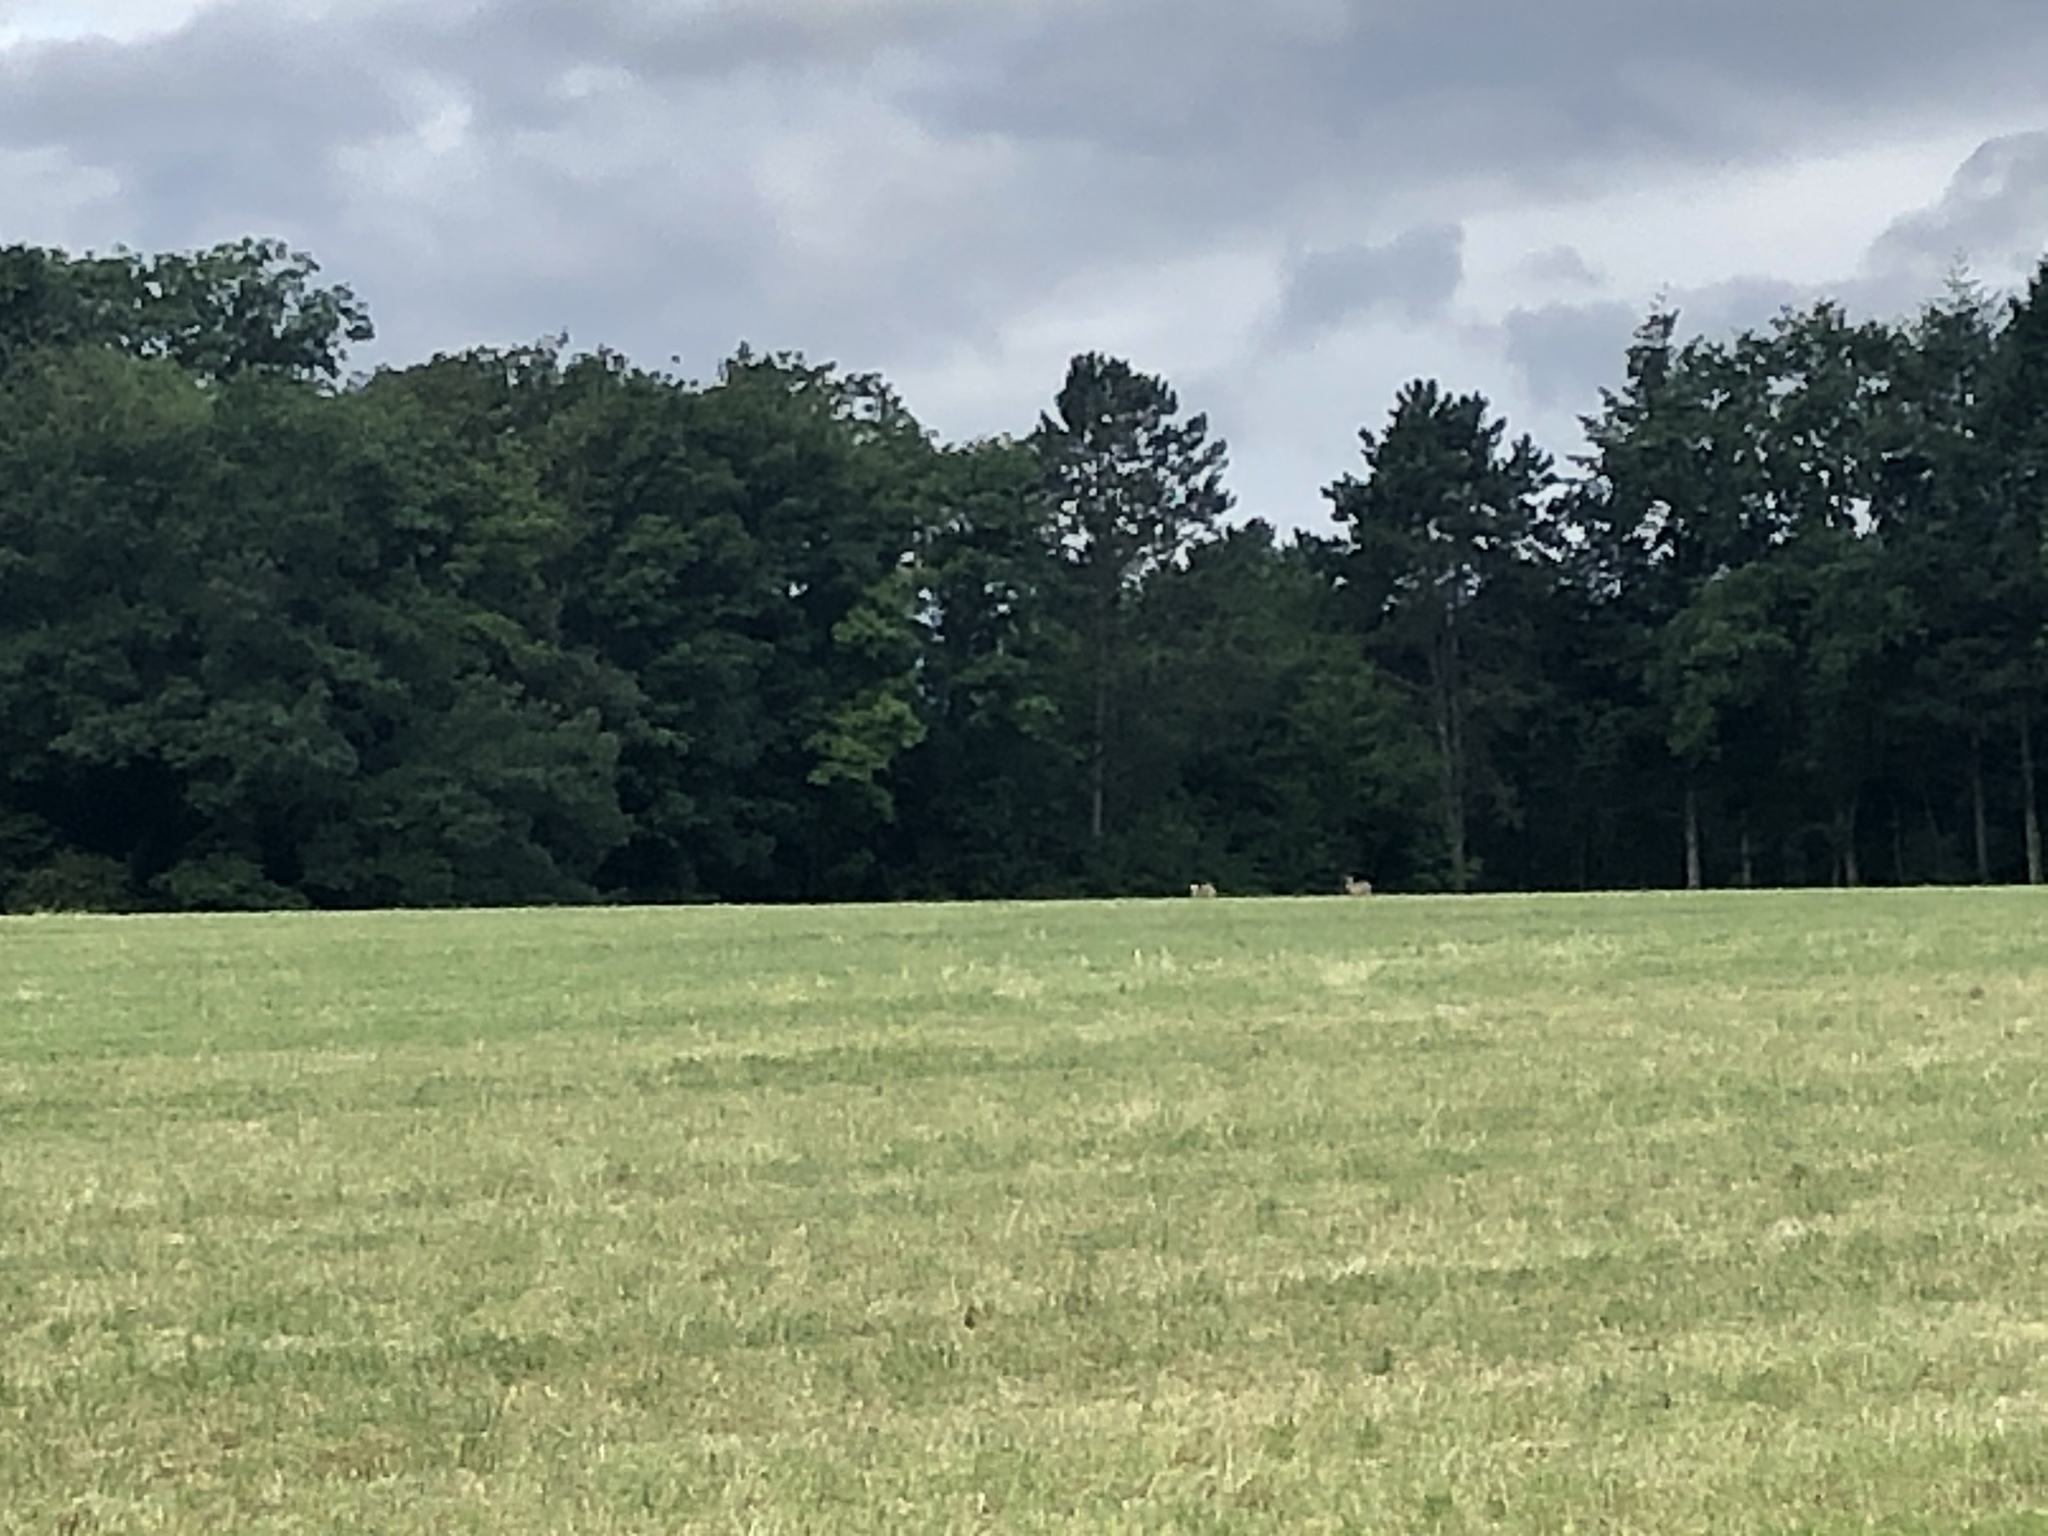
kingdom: Animalia
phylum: Chordata
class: Mammalia
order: Lagomorpha
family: Leporidae
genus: Lepus
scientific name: Lepus europaeus
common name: European hare
